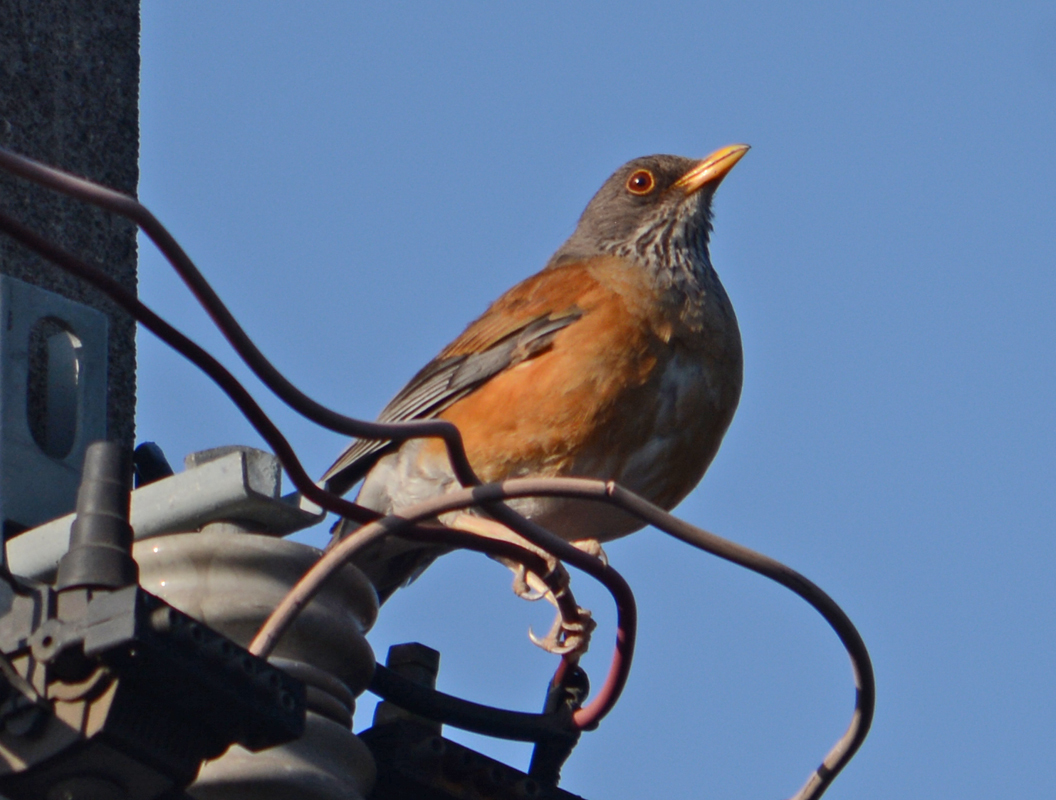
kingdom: Animalia
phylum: Chordata
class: Aves
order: Passeriformes
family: Turdidae
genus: Turdus
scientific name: Turdus rufopalliatus
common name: Rufous-backed robin
